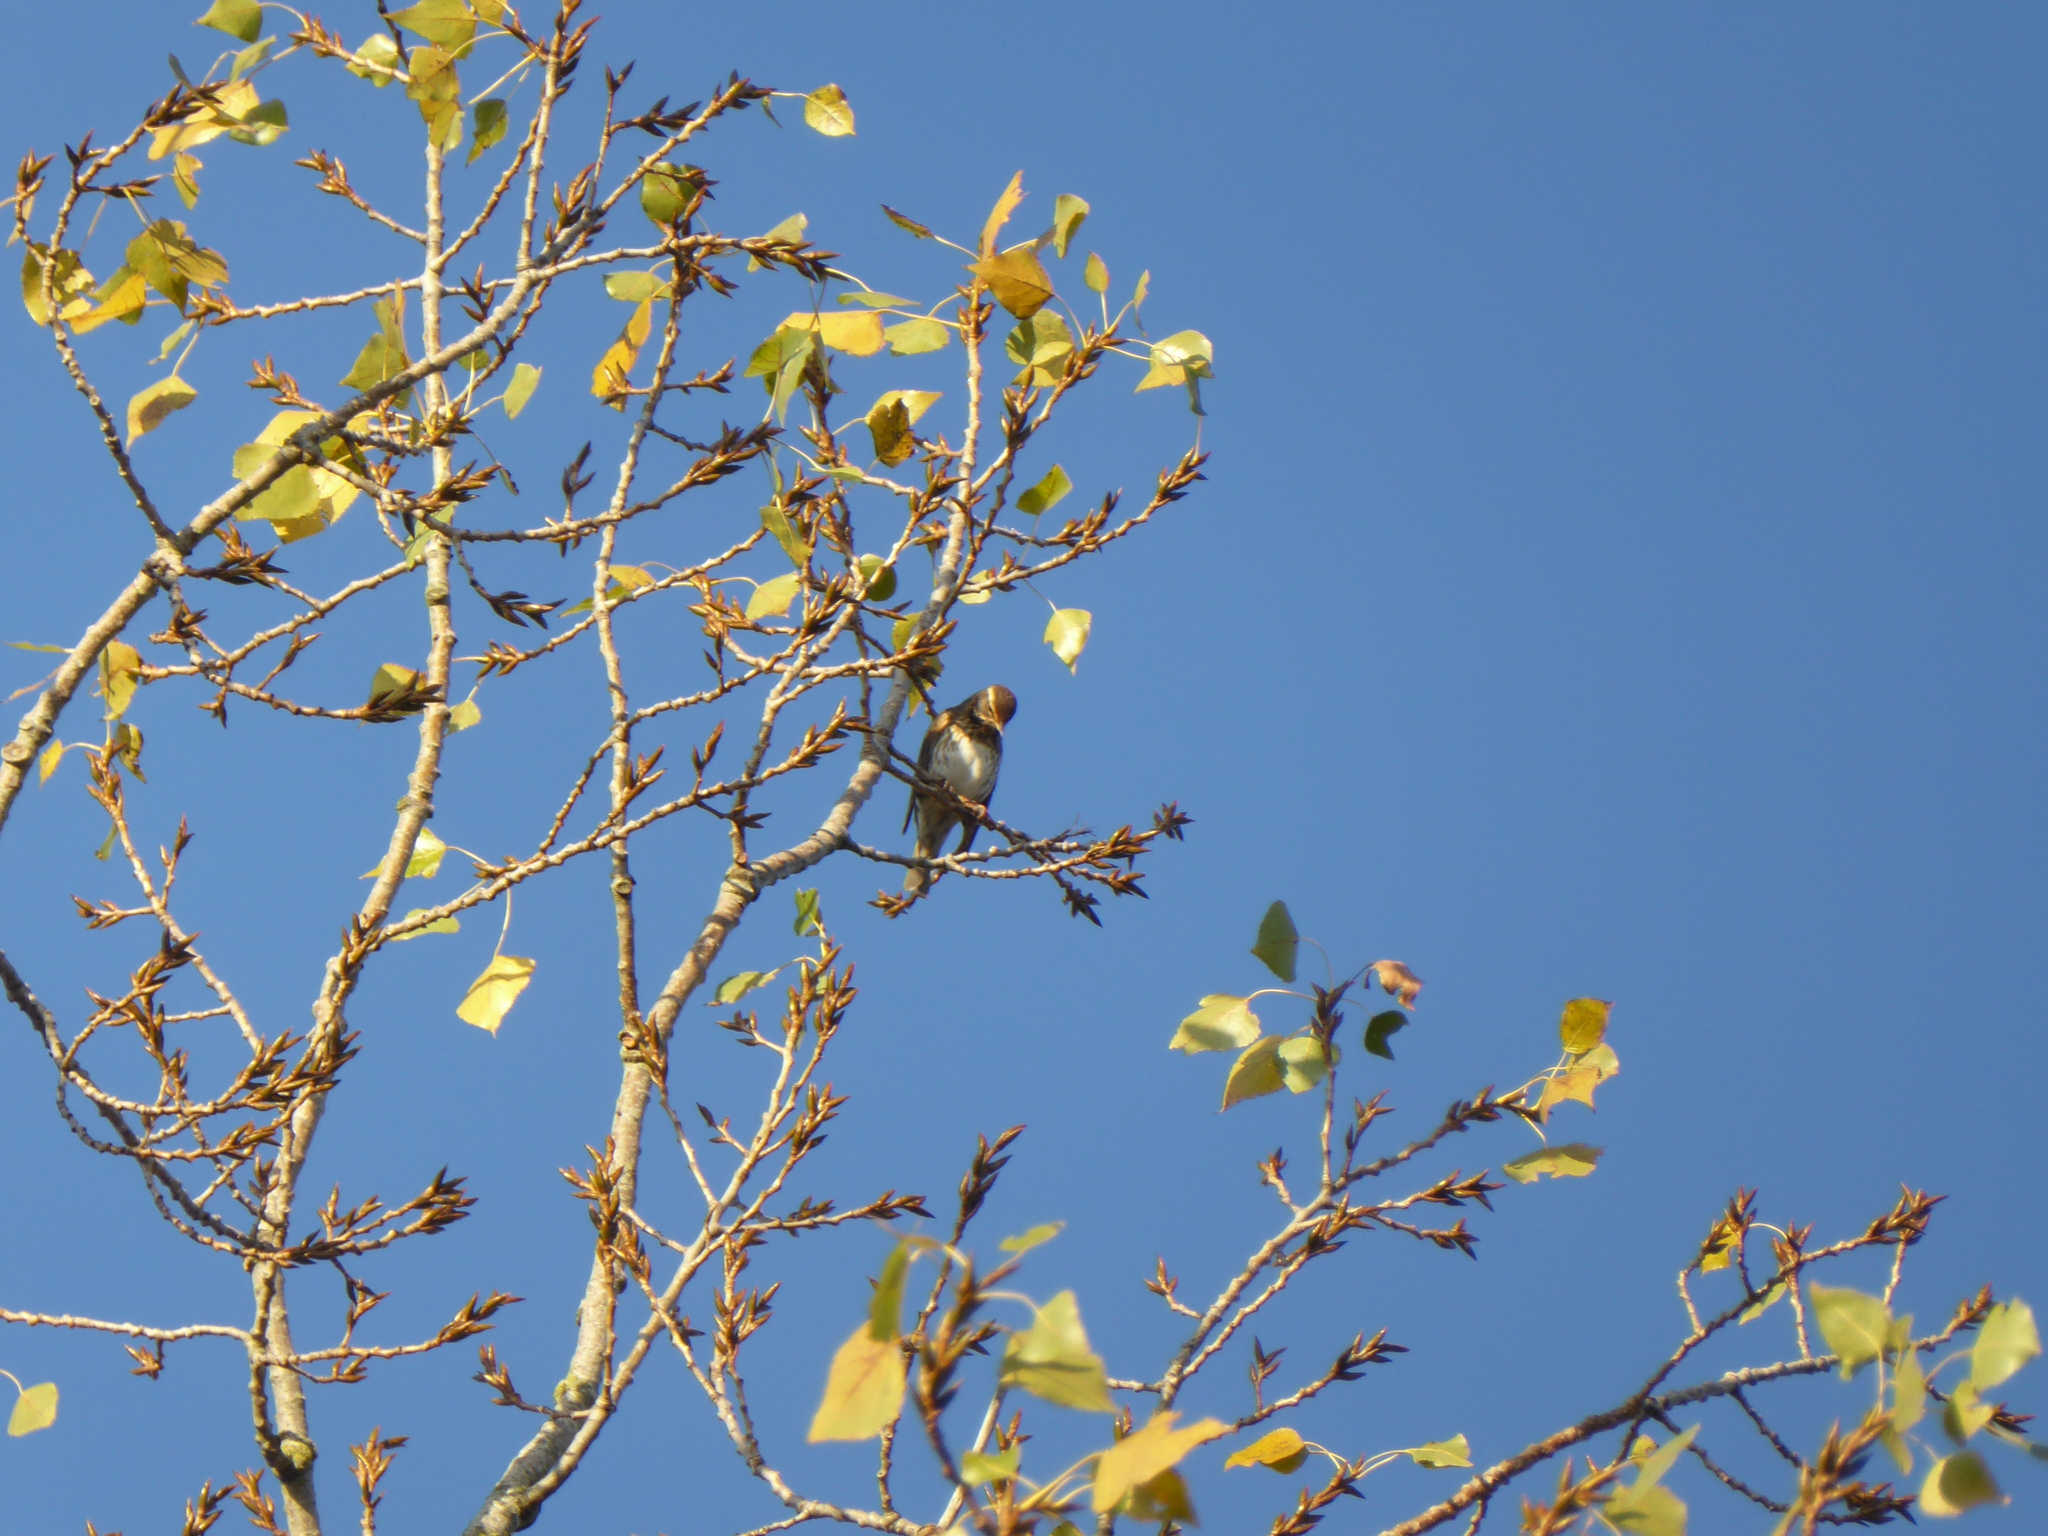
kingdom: Animalia
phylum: Chordata
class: Aves
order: Passeriformes
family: Turdidae
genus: Turdus
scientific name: Turdus iliacus
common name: Redwing
